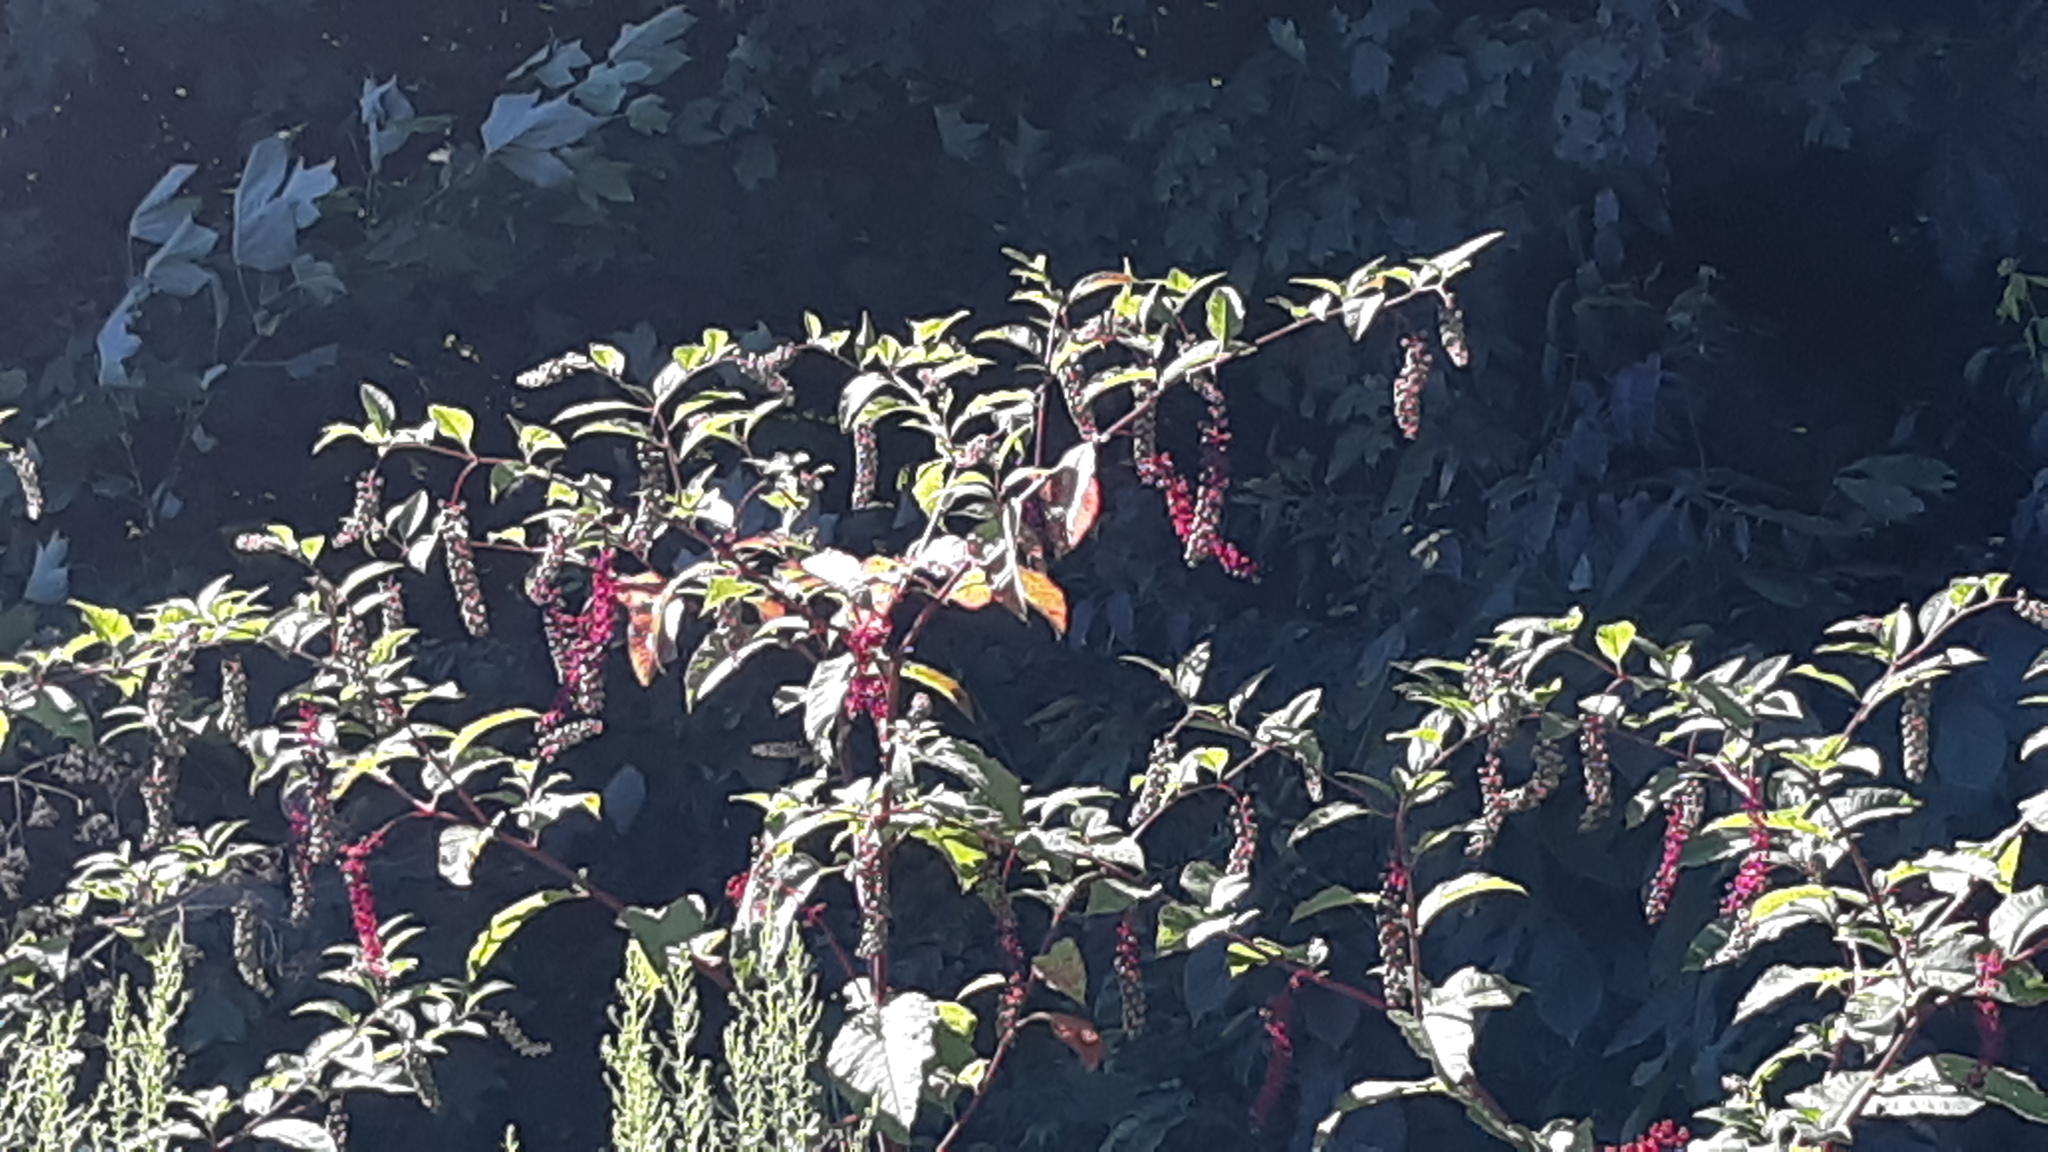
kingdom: Plantae
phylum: Tracheophyta
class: Magnoliopsida
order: Caryophyllales
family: Phytolaccaceae
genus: Phytolacca
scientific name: Phytolacca americana
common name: American pokeweed
